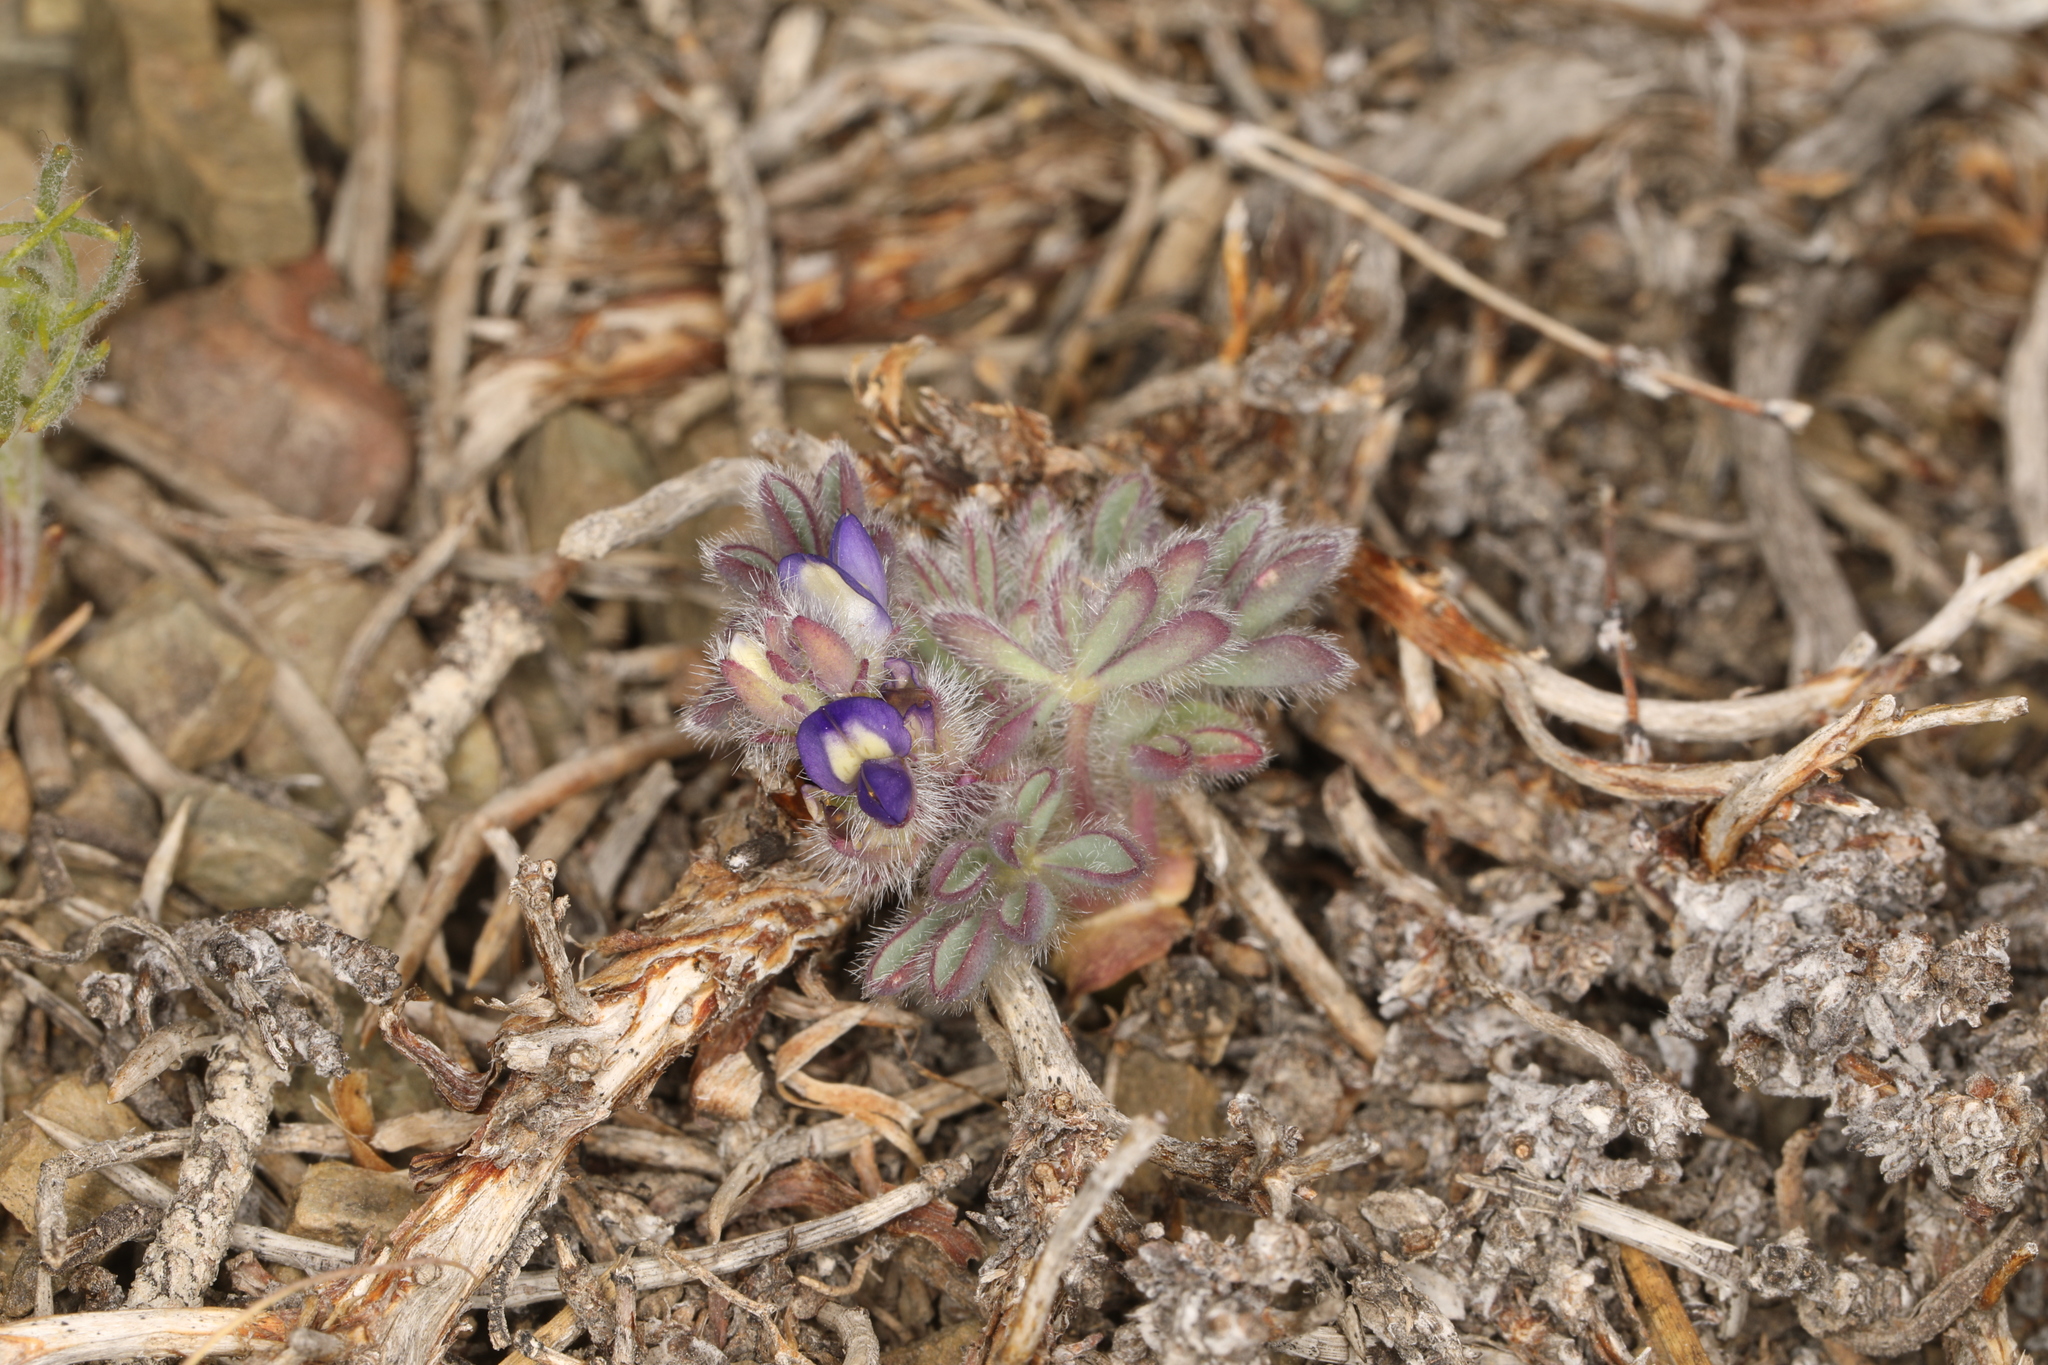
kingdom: Plantae
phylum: Tracheophyta
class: Magnoliopsida
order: Fabales
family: Fabaceae
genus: Lupinus
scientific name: Lupinus brevicaulis
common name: Sand lupine
